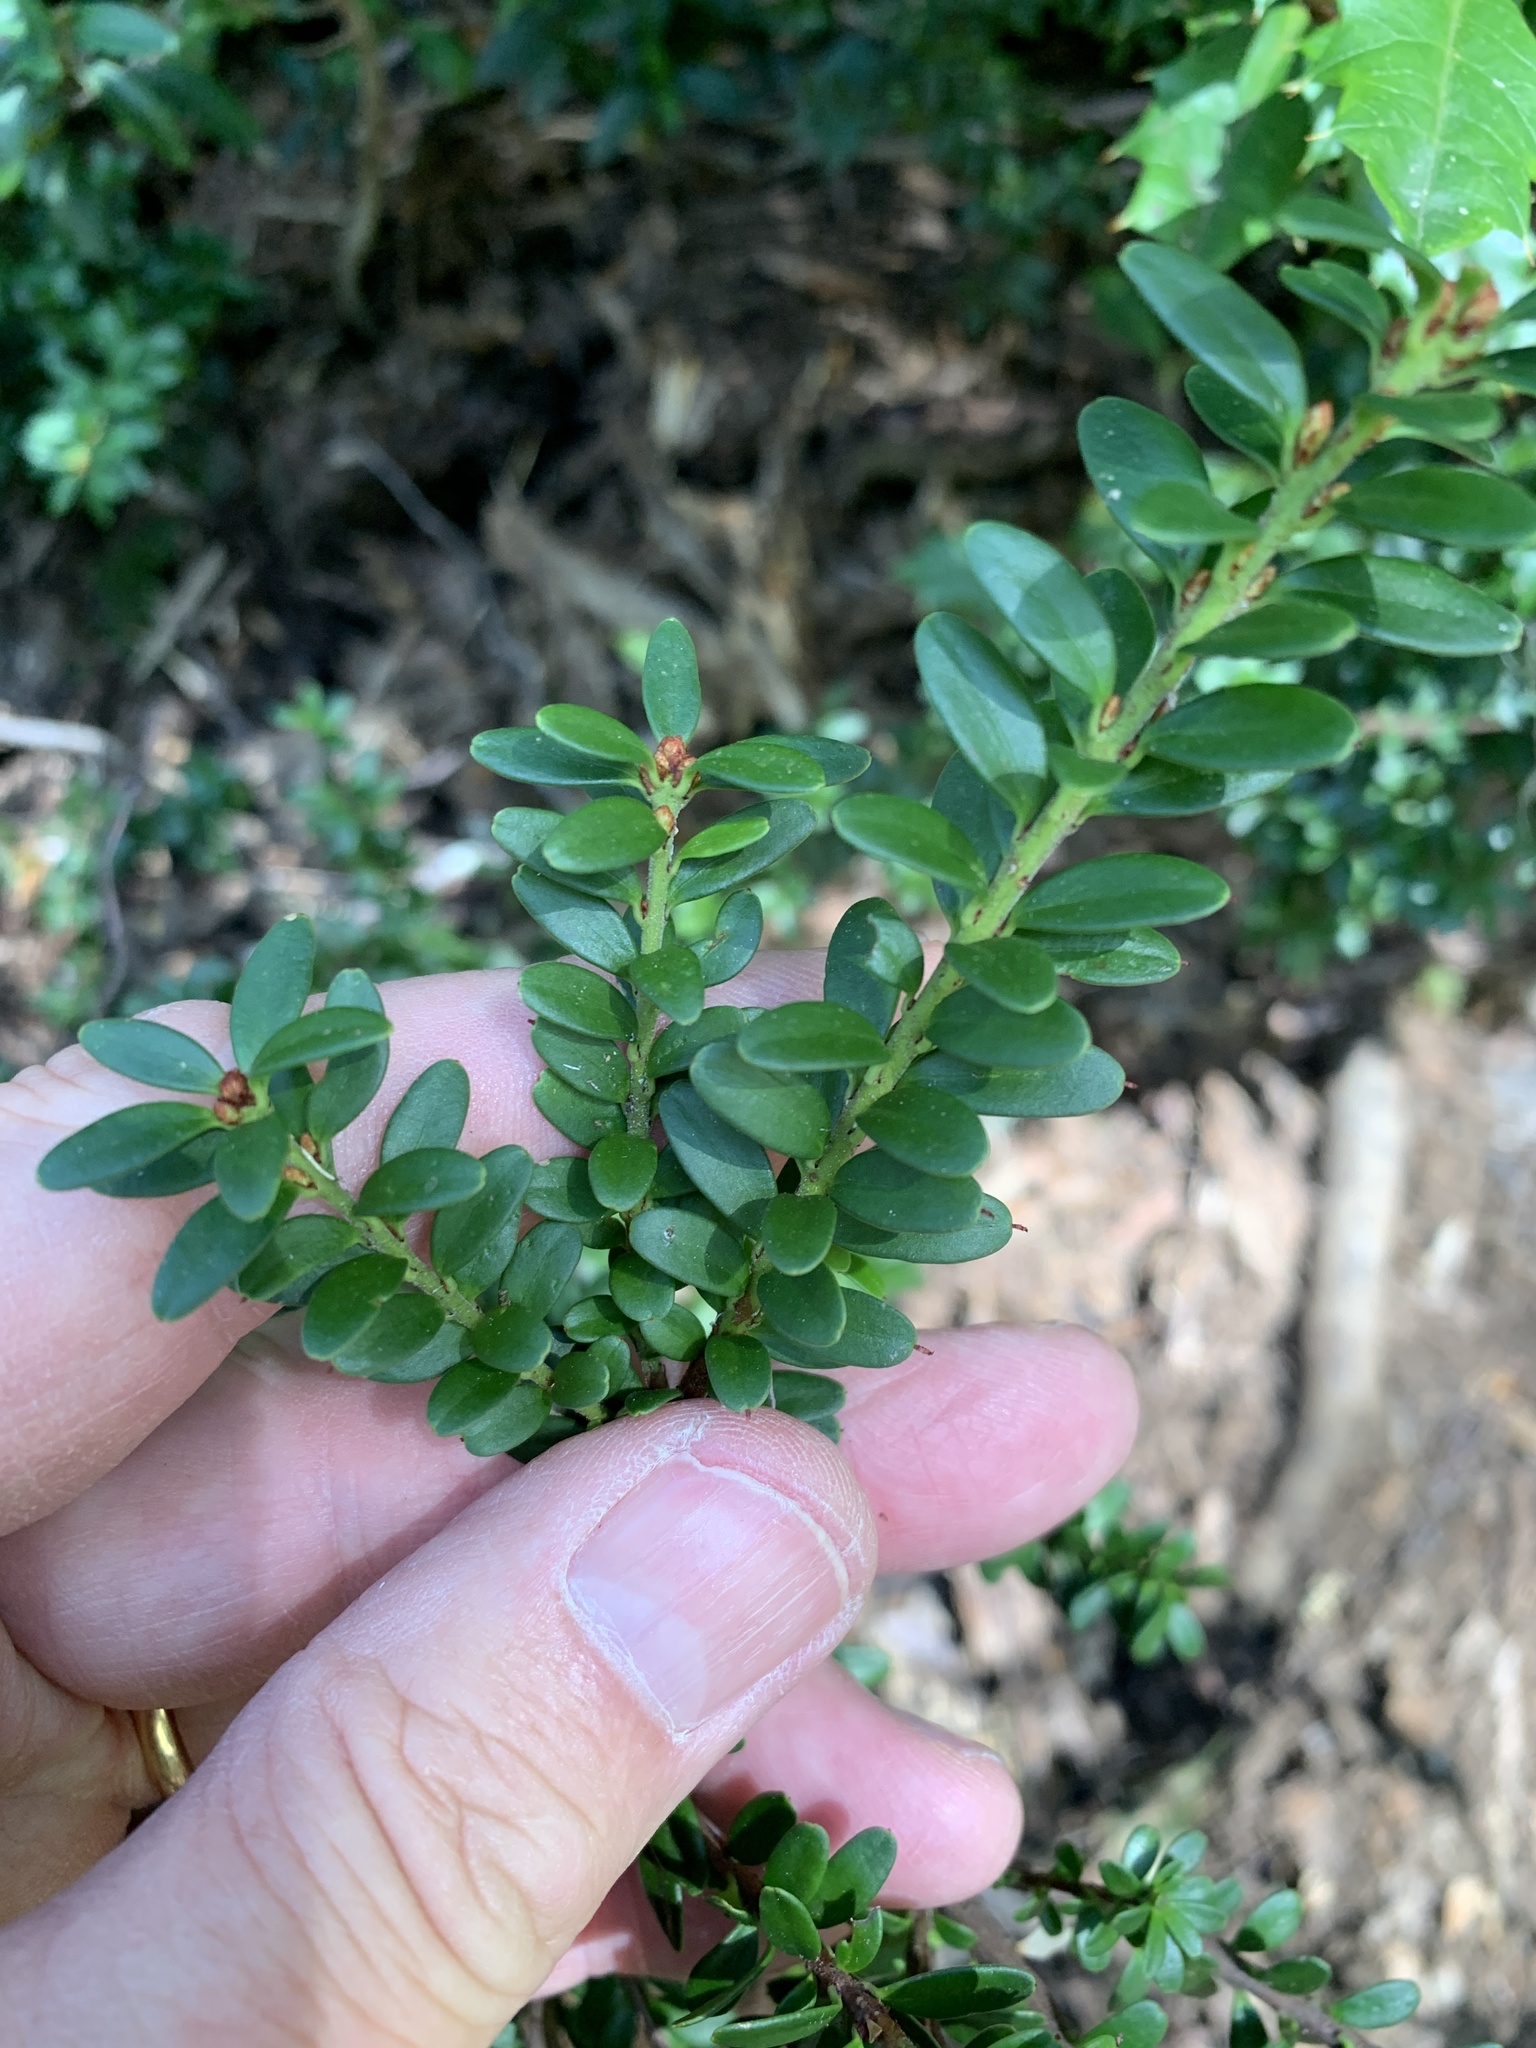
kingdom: Plantae
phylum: Tracheophyta
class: Magnoliopsida
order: Celastrales
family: Celastraceae
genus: Maytenus
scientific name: Maytenus disticha
